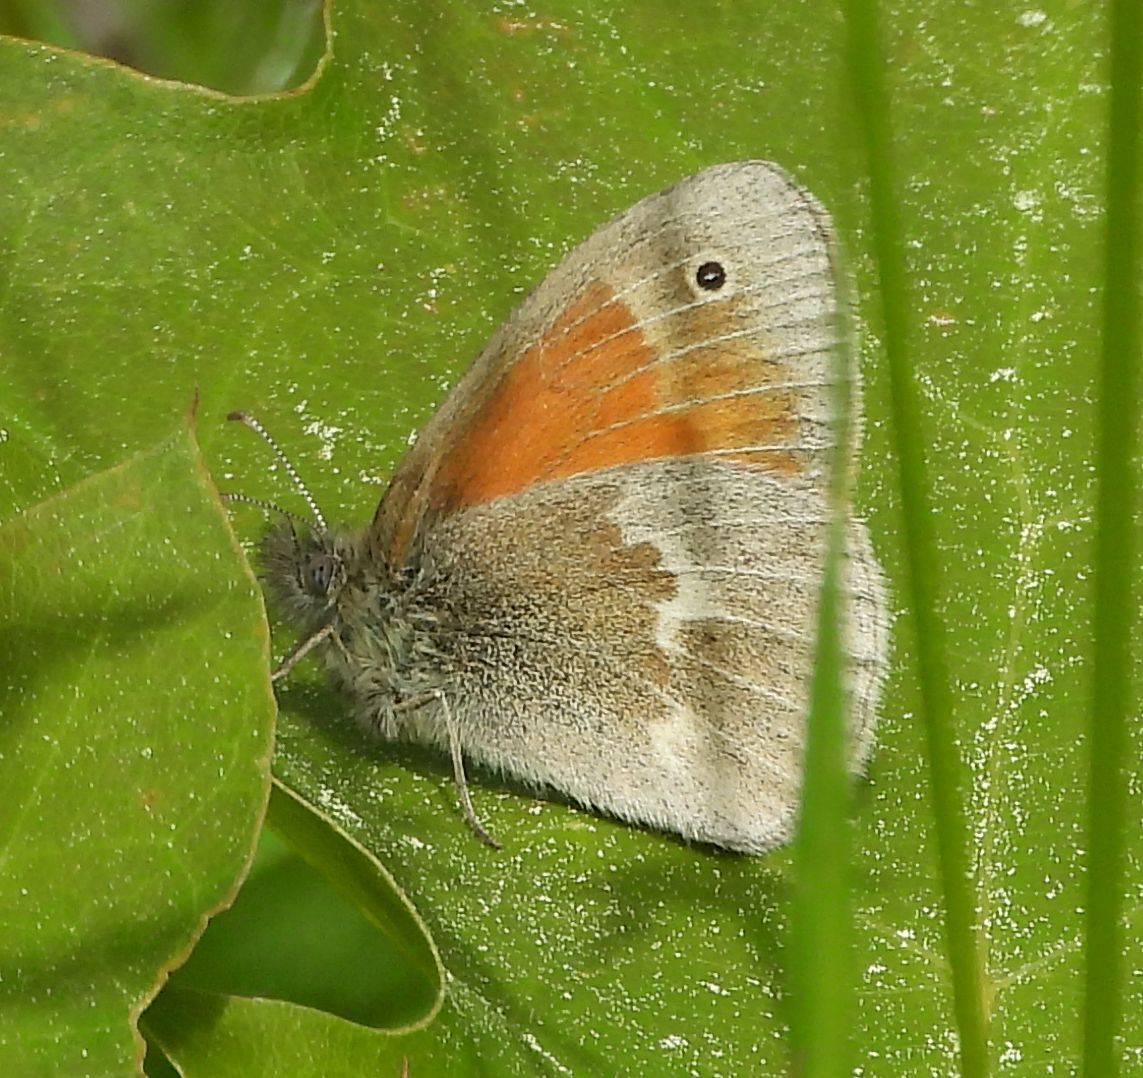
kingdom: Animalia
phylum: Arthropoda
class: Insecta
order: Lepidoptera
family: Nymphalidae
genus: Coenonympha
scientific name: Coenonympha california
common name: Common ringlet
